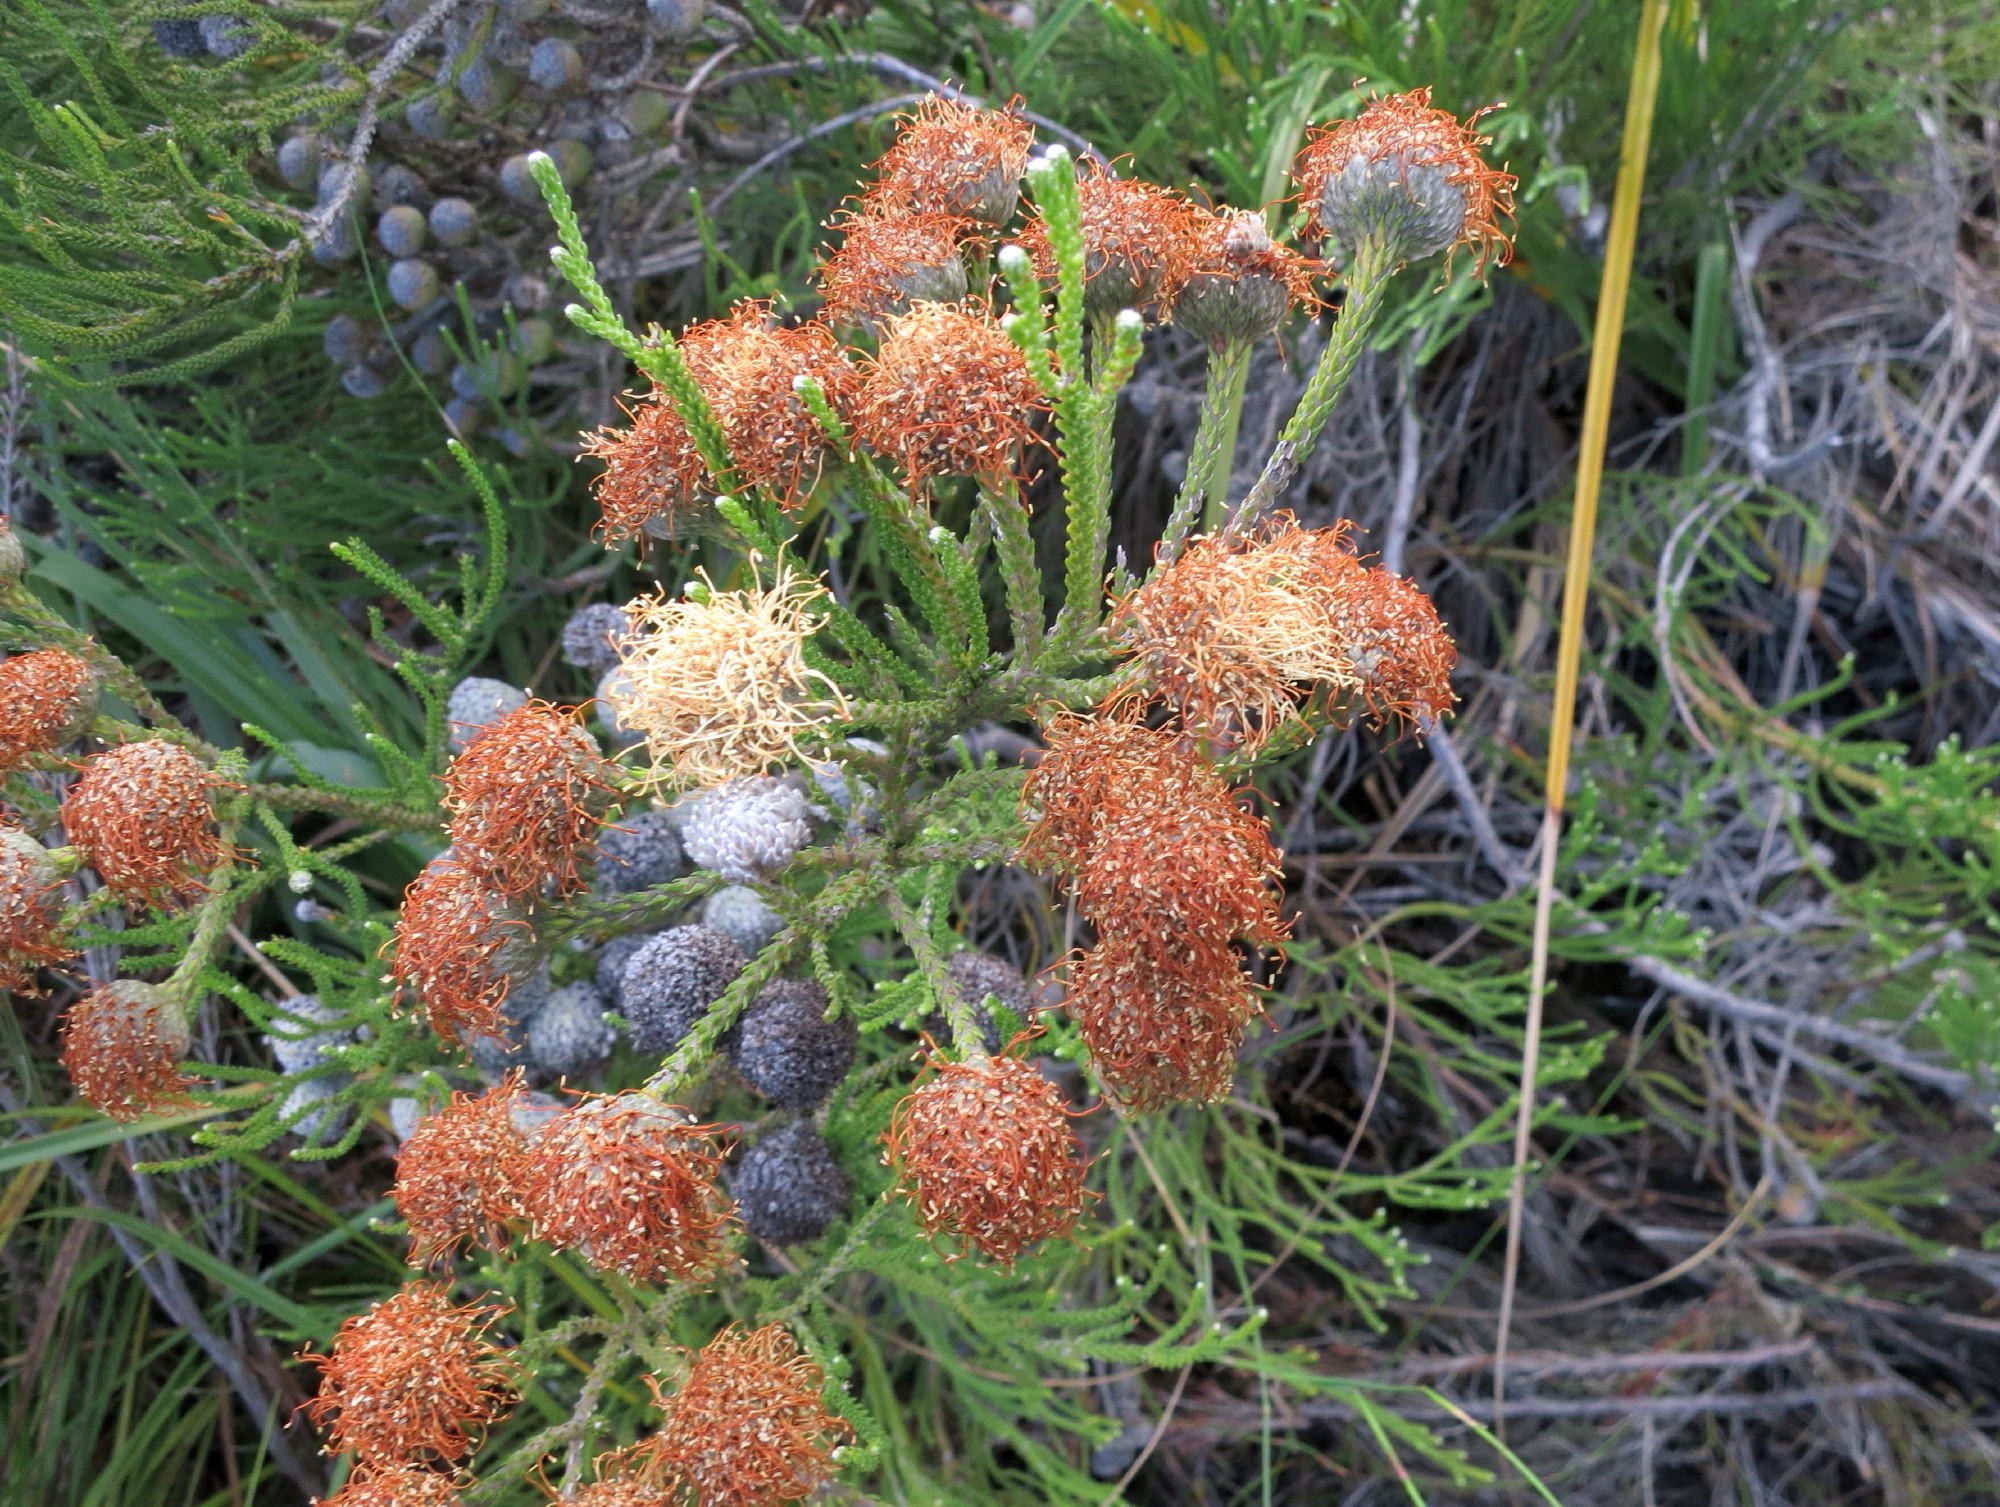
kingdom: Plantae
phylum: Tracheophyta
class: Magnoliopsida
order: Bruniales
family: Bruniaceae
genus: Brunia
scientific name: Brunia noduliflora
